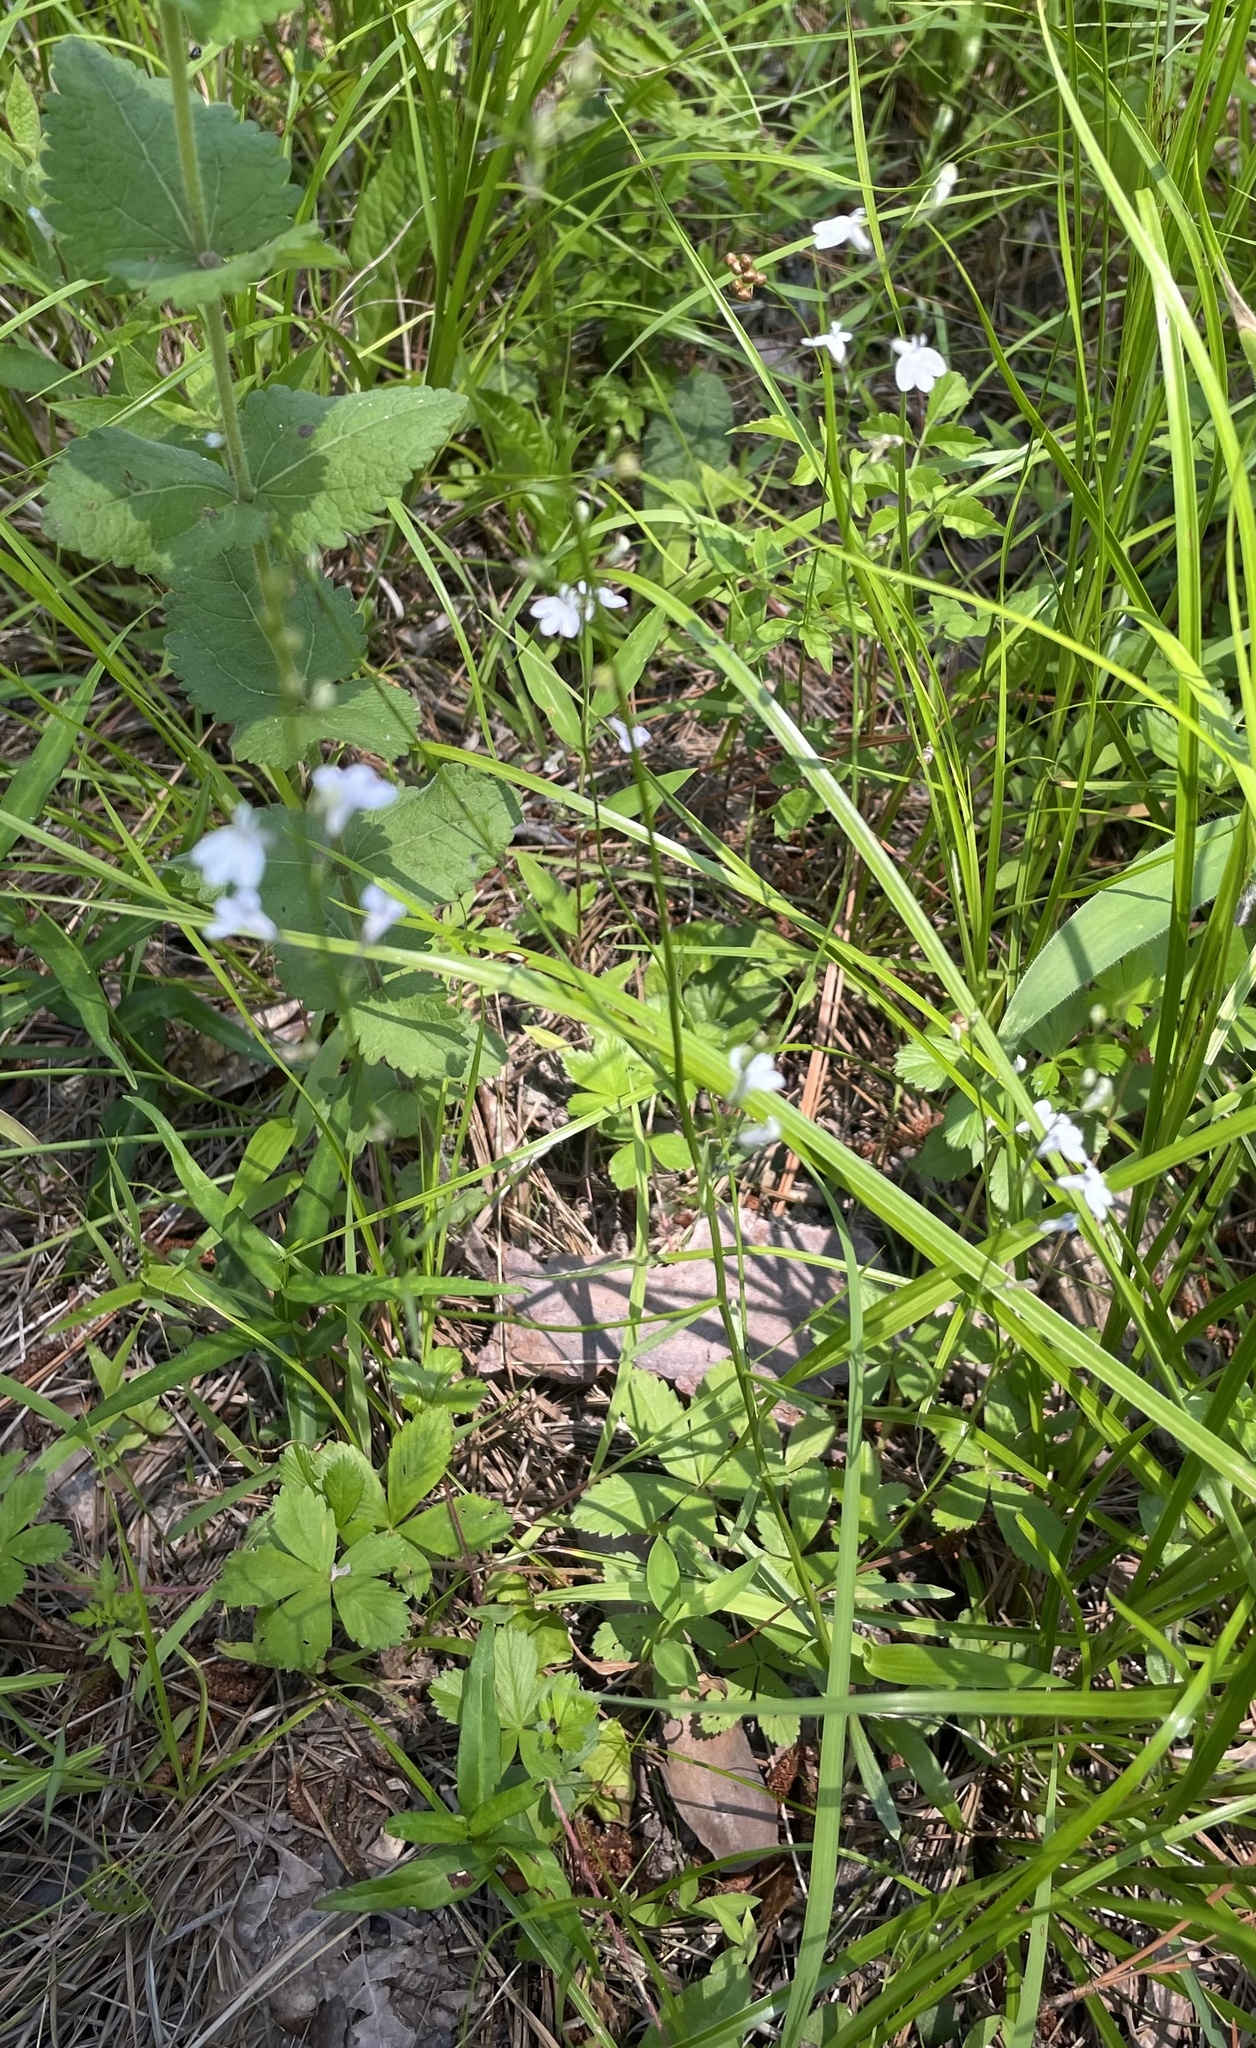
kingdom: Plantae
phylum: Tracheophyta
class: Magnoliopsida
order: Asterales
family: Campanulaceae
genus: Lobelia
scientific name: Lobelia nuttallii
